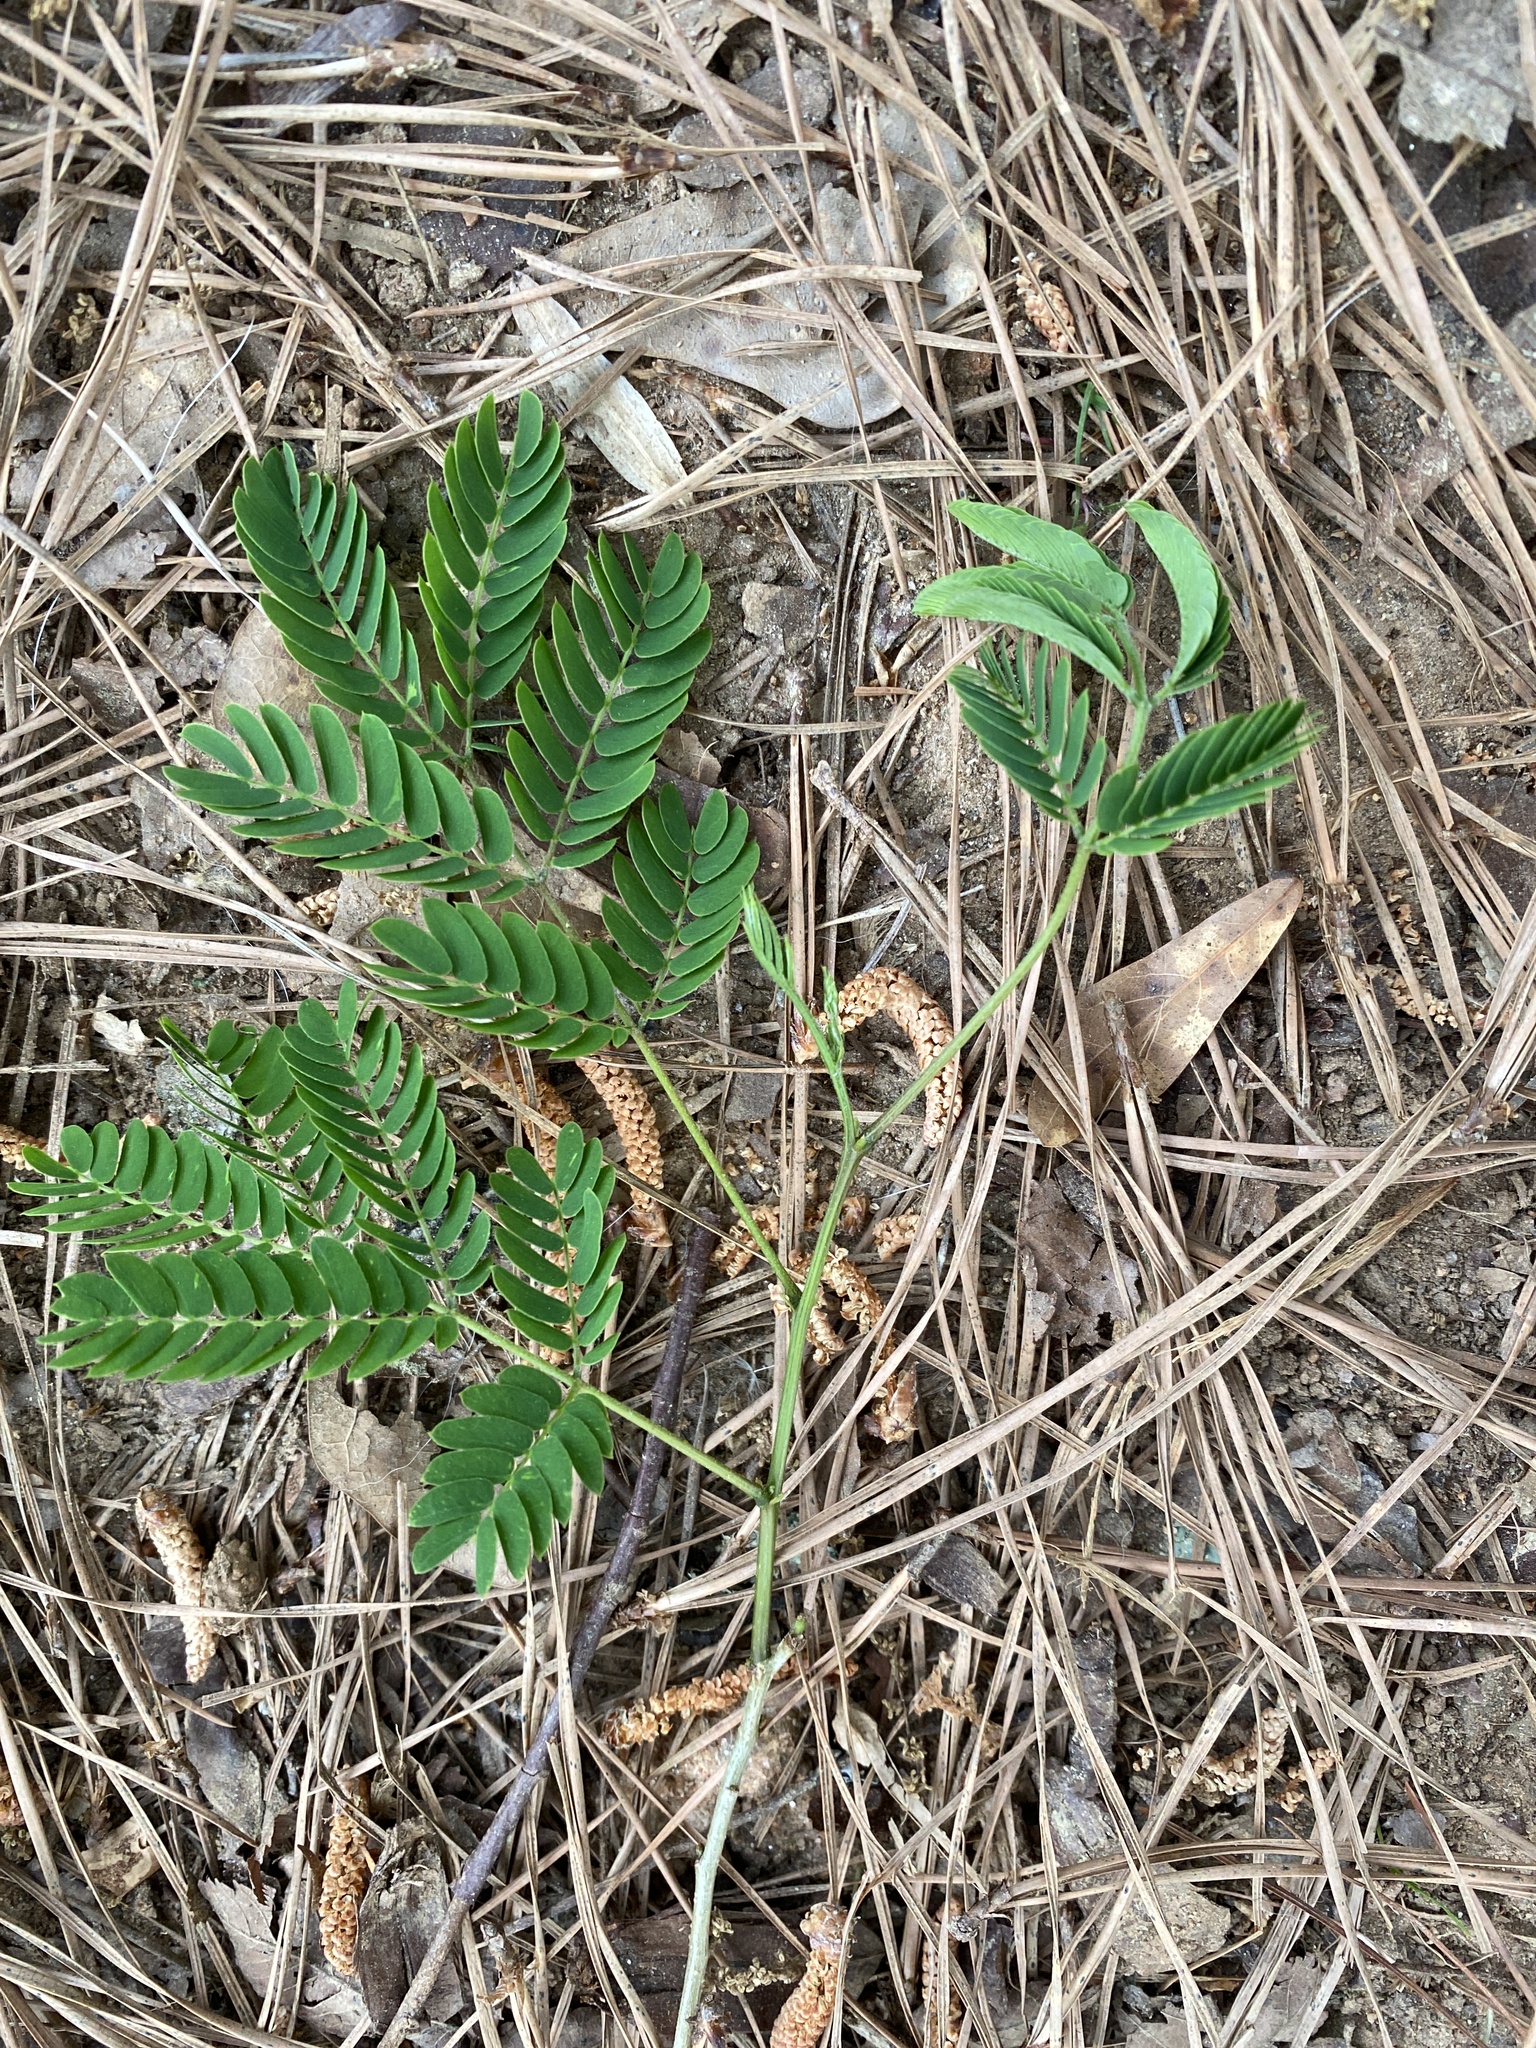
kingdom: Plantae
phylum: Tracheophyta
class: Magnoliopsida
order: Fabales
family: Fabaceae
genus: Albizia
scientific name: Albizia julibrissin
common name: Silktree
